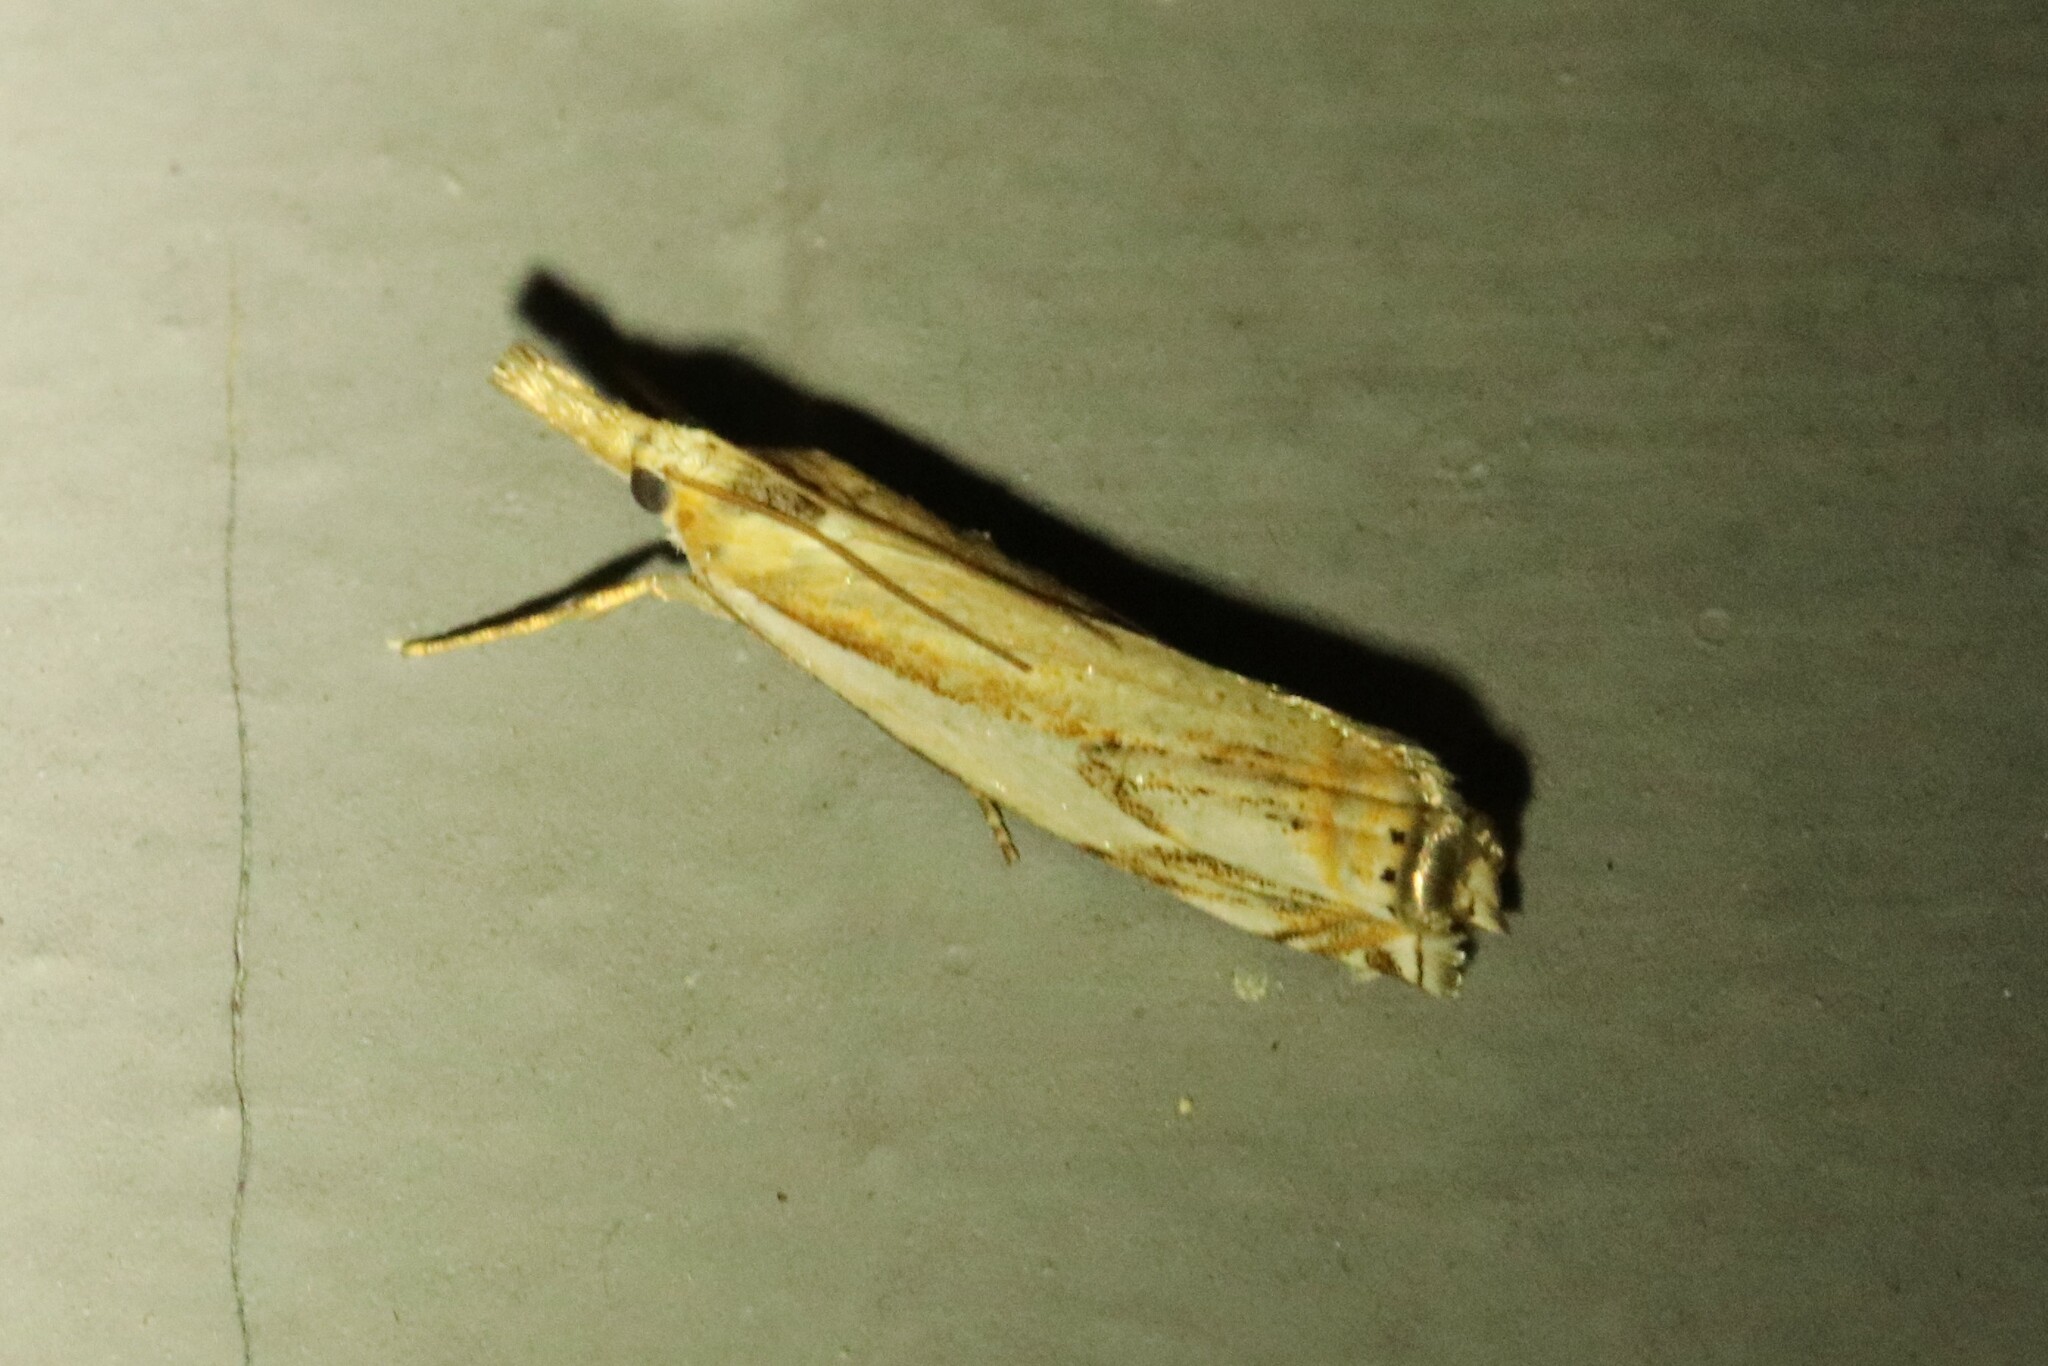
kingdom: Animalia
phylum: Arthropoda
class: Insecta
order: Lepidoptera
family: Crambidae
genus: Crambus
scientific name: Crambus agitatellus
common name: Double-banded grass-veneer
